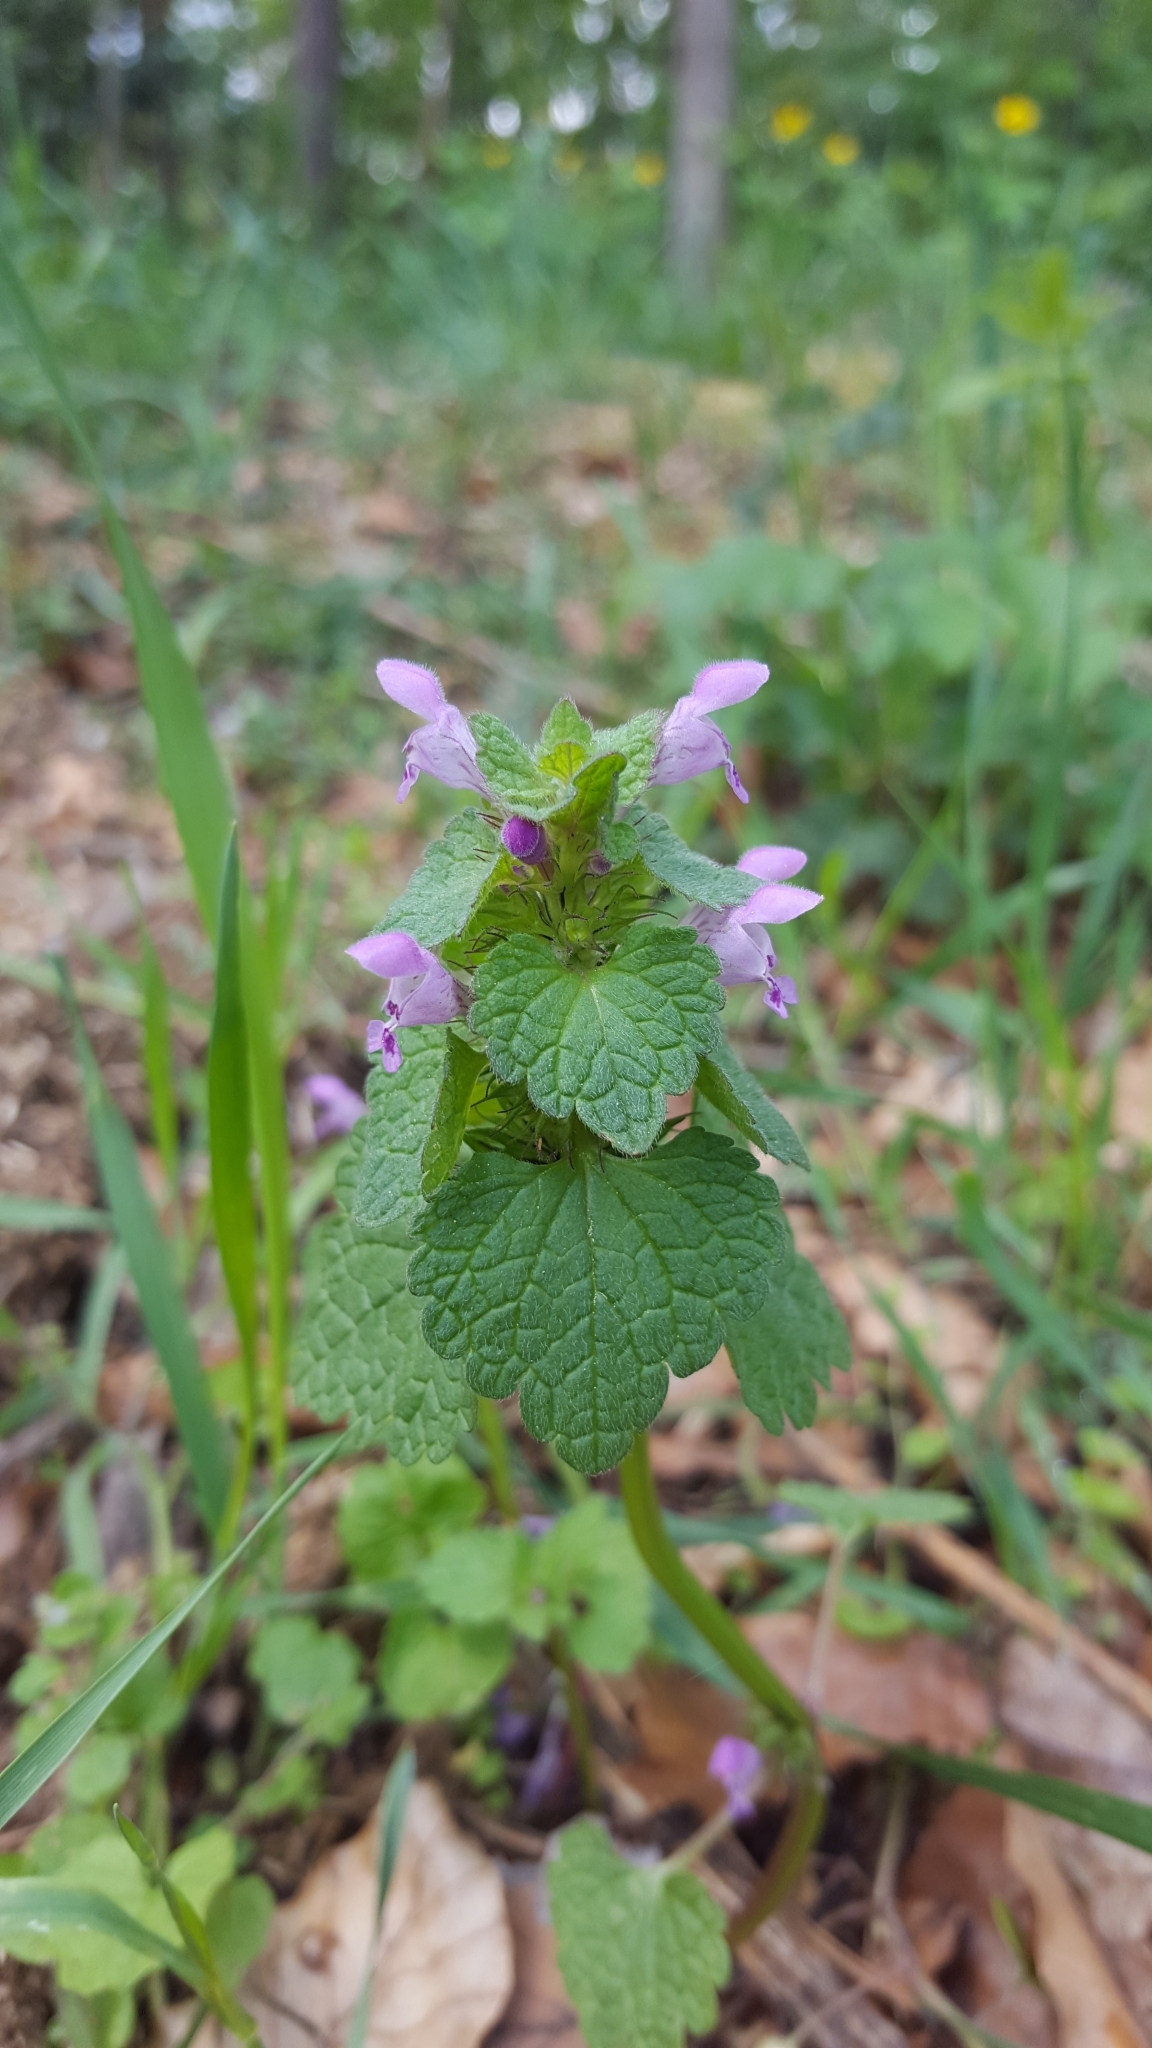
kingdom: Plantae
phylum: Tracheophyta
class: Magnoliopsida
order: Lamiales
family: Lamiaceae
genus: Lamium
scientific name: Lamium purpureum
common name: Red dead-nettle
